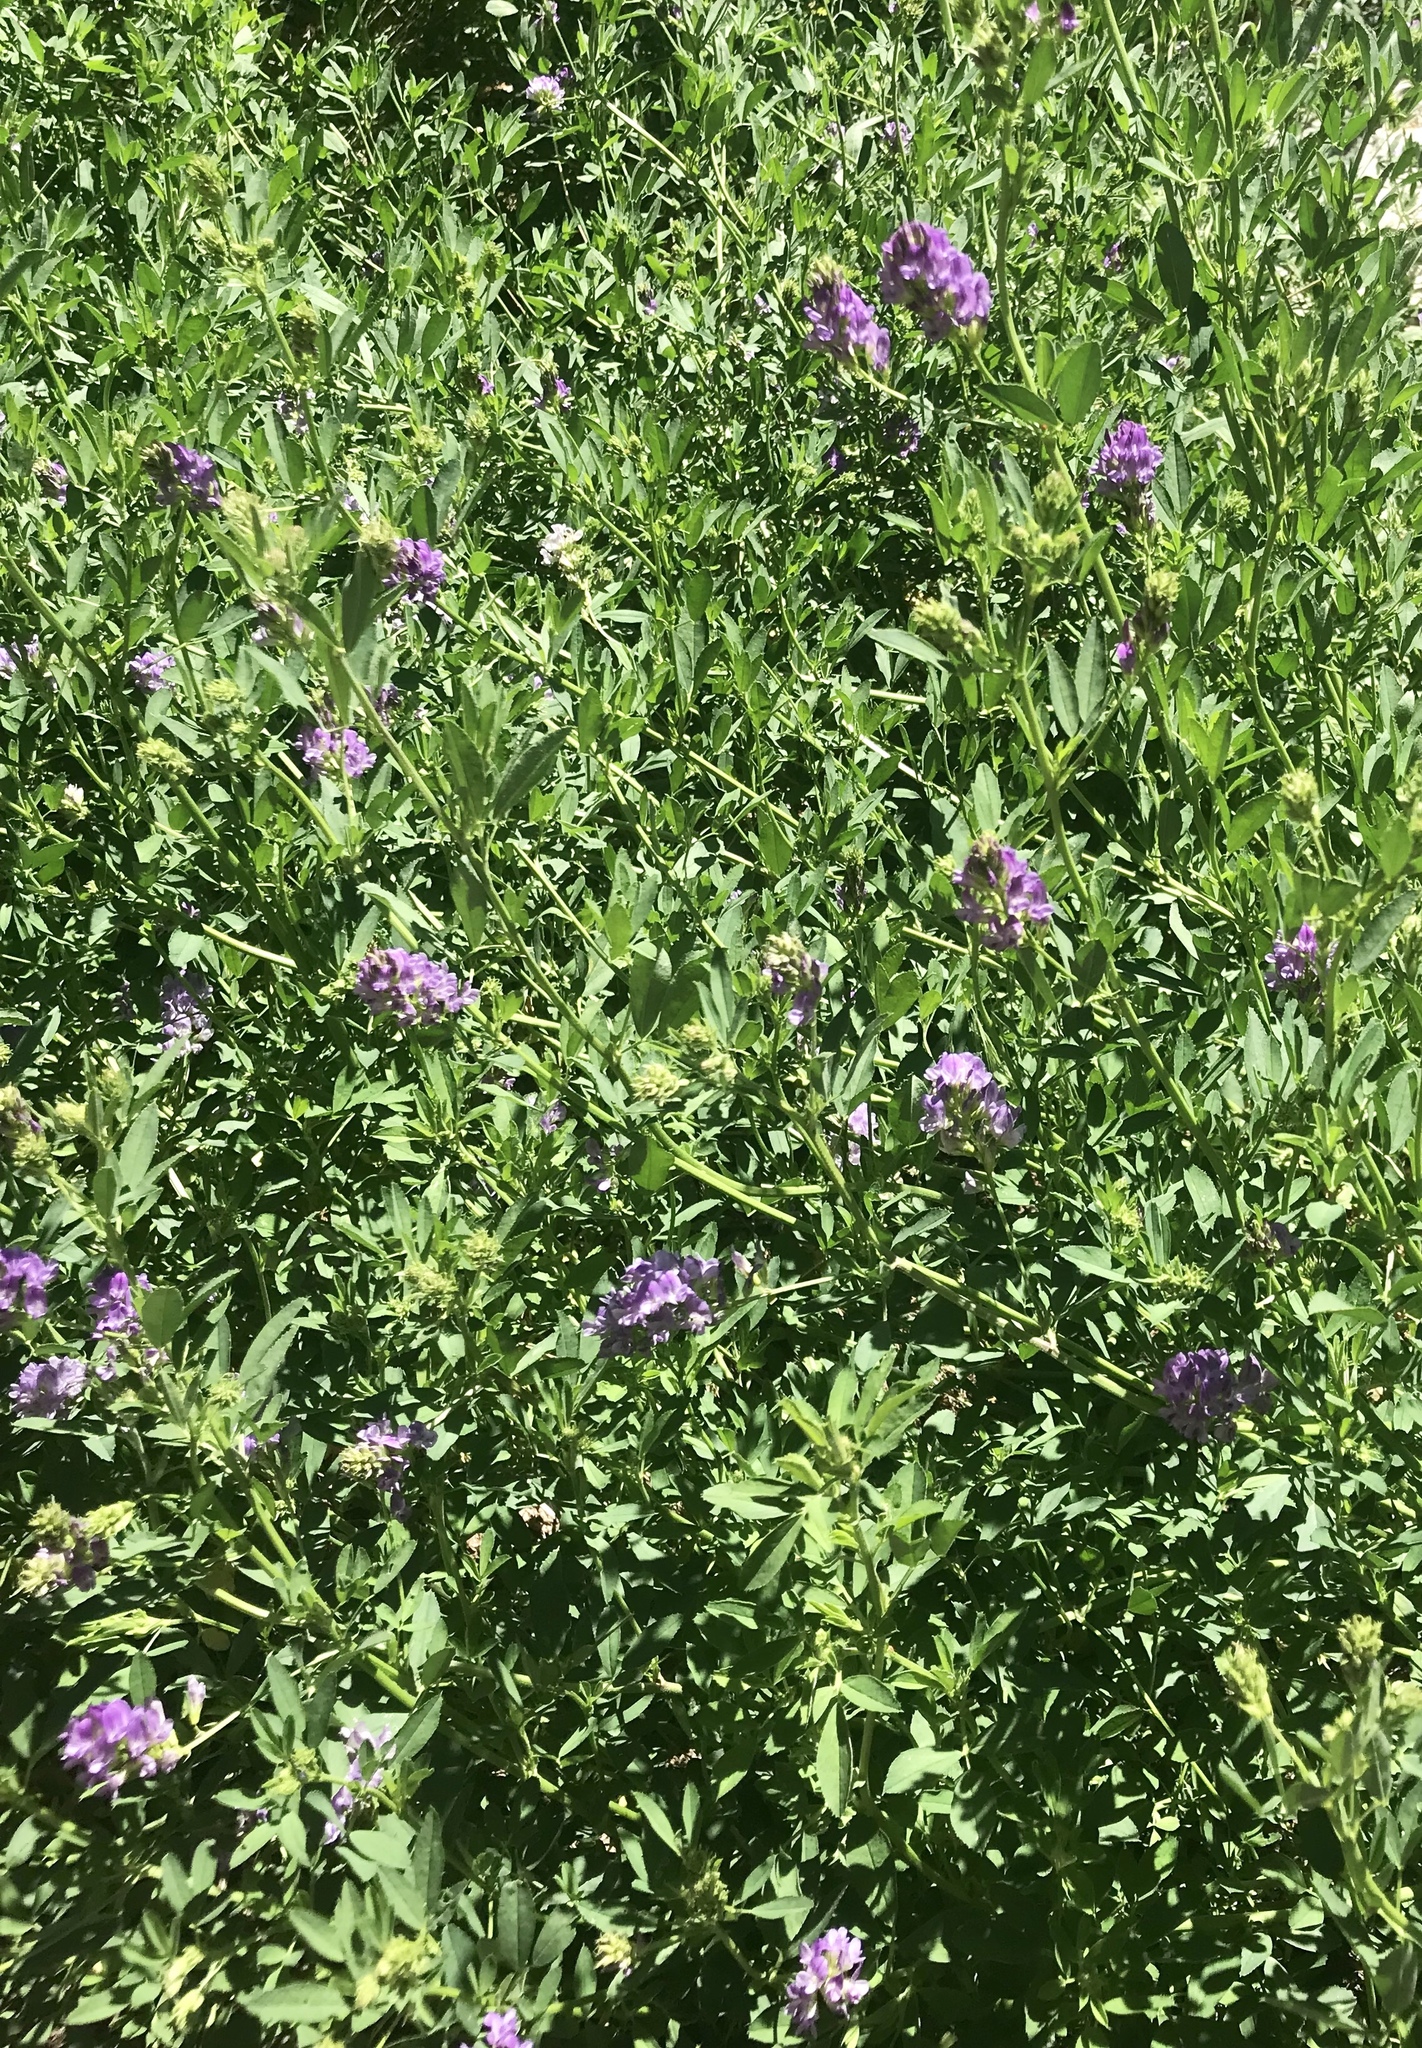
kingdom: Plantae
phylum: Tracheophyta
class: Magnoliopsida
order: Fabales
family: Fabaceae
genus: Medicago
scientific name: Medicago sativa
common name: Alfalfa
